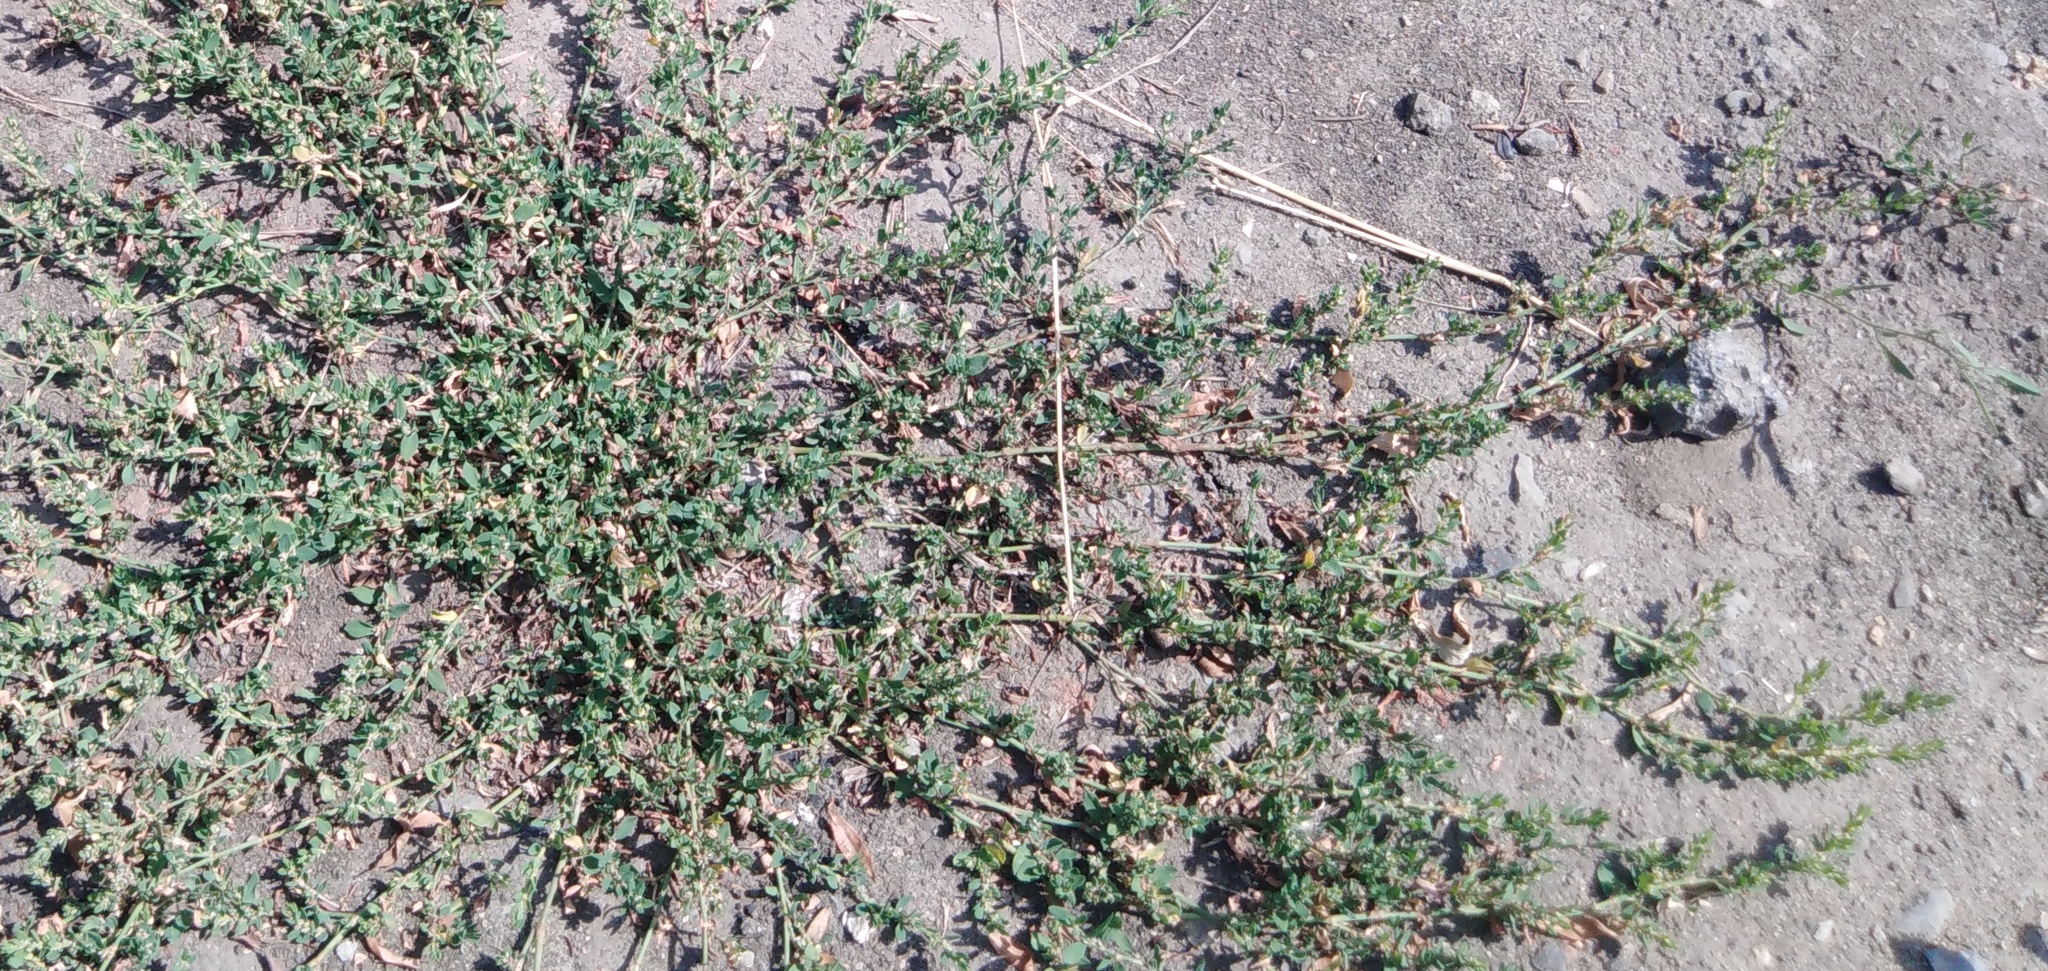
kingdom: Plantae
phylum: Tracheophyta
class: Magnoliopsida
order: Caryophyllales
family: Polygonaceae
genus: Polygonum
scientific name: Polygonum
